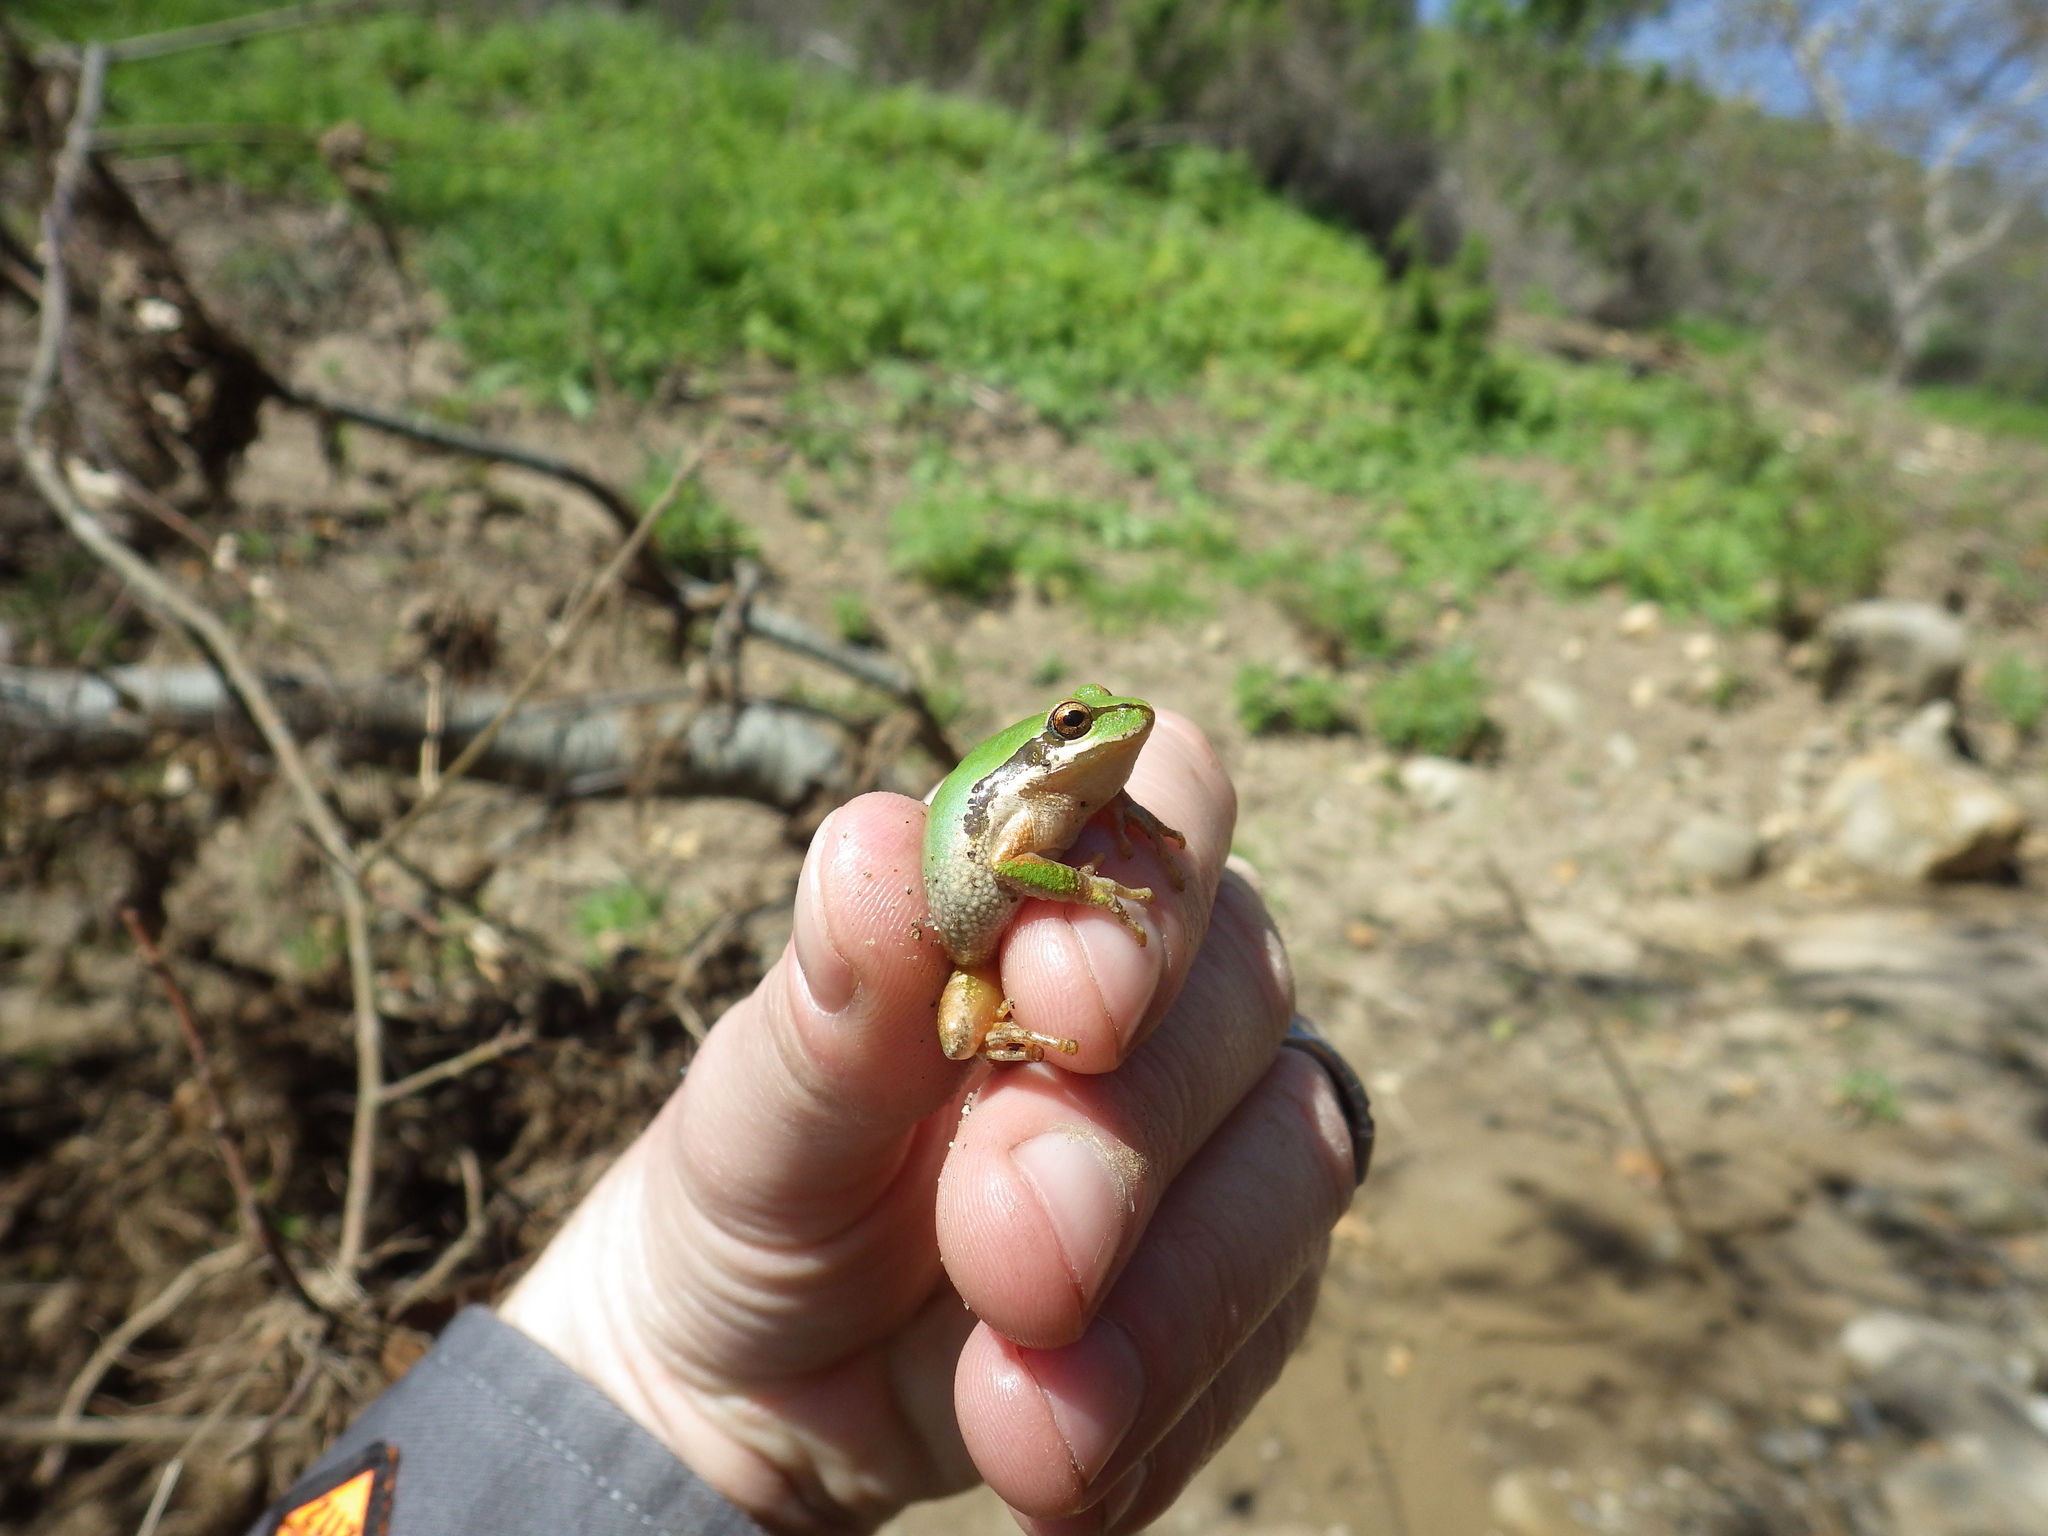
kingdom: Animalia
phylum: Chordata
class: Amphibia
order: Anura
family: Hylidae
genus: Pseudacris
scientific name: Pseudacris regilla
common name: Pacific chorus frog
